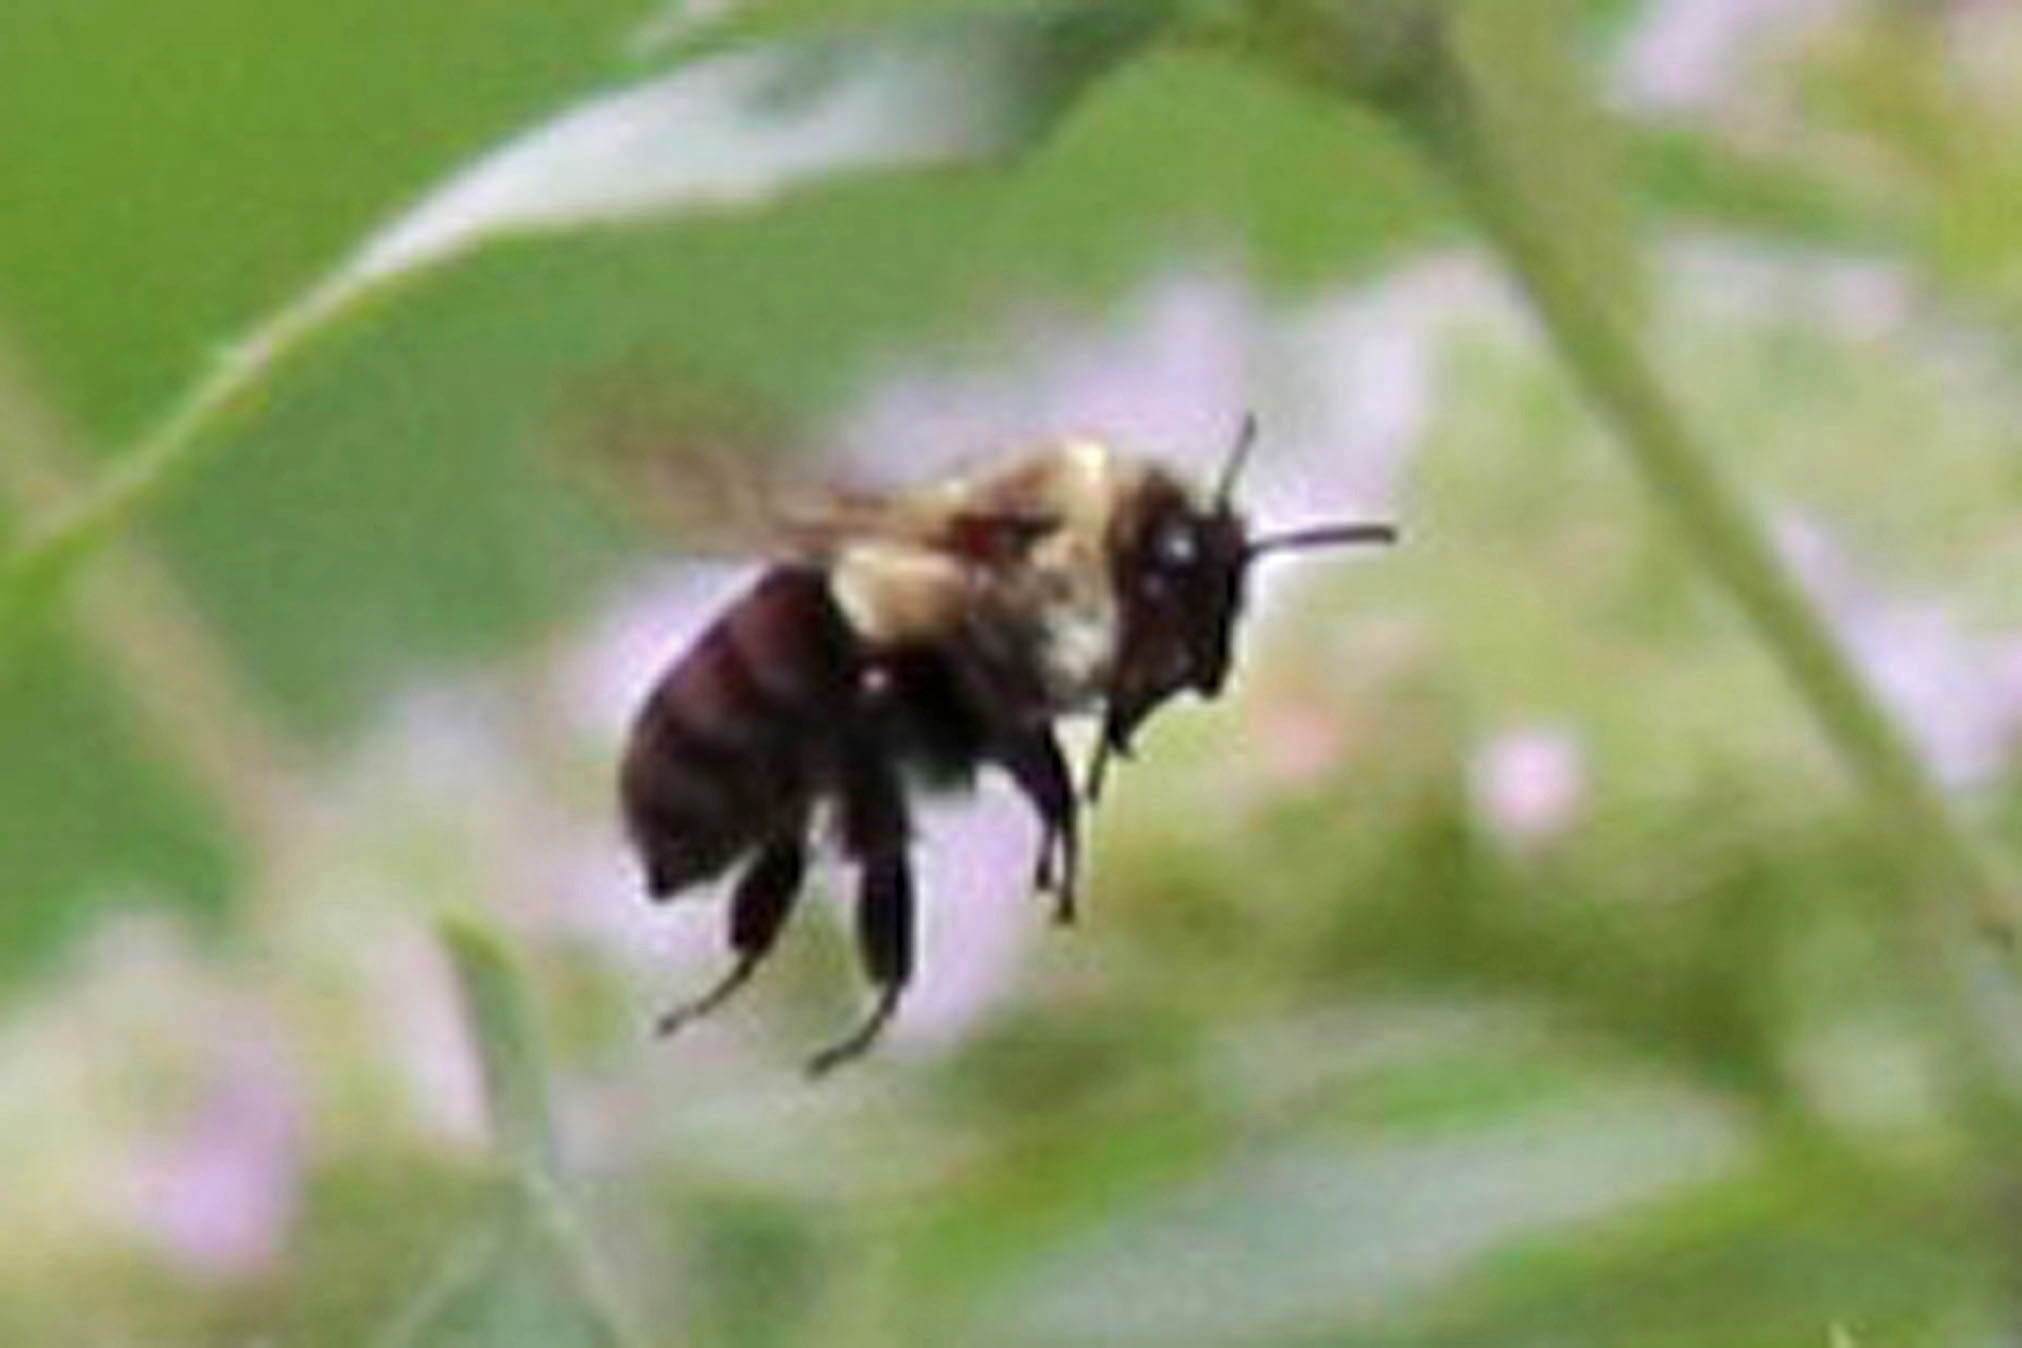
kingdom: Animalia
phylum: Arthropoda
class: Insecta
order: Hymenoptera
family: Apidae
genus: Bombus
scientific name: Bombus impatiens
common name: Common eastern bumble bee
